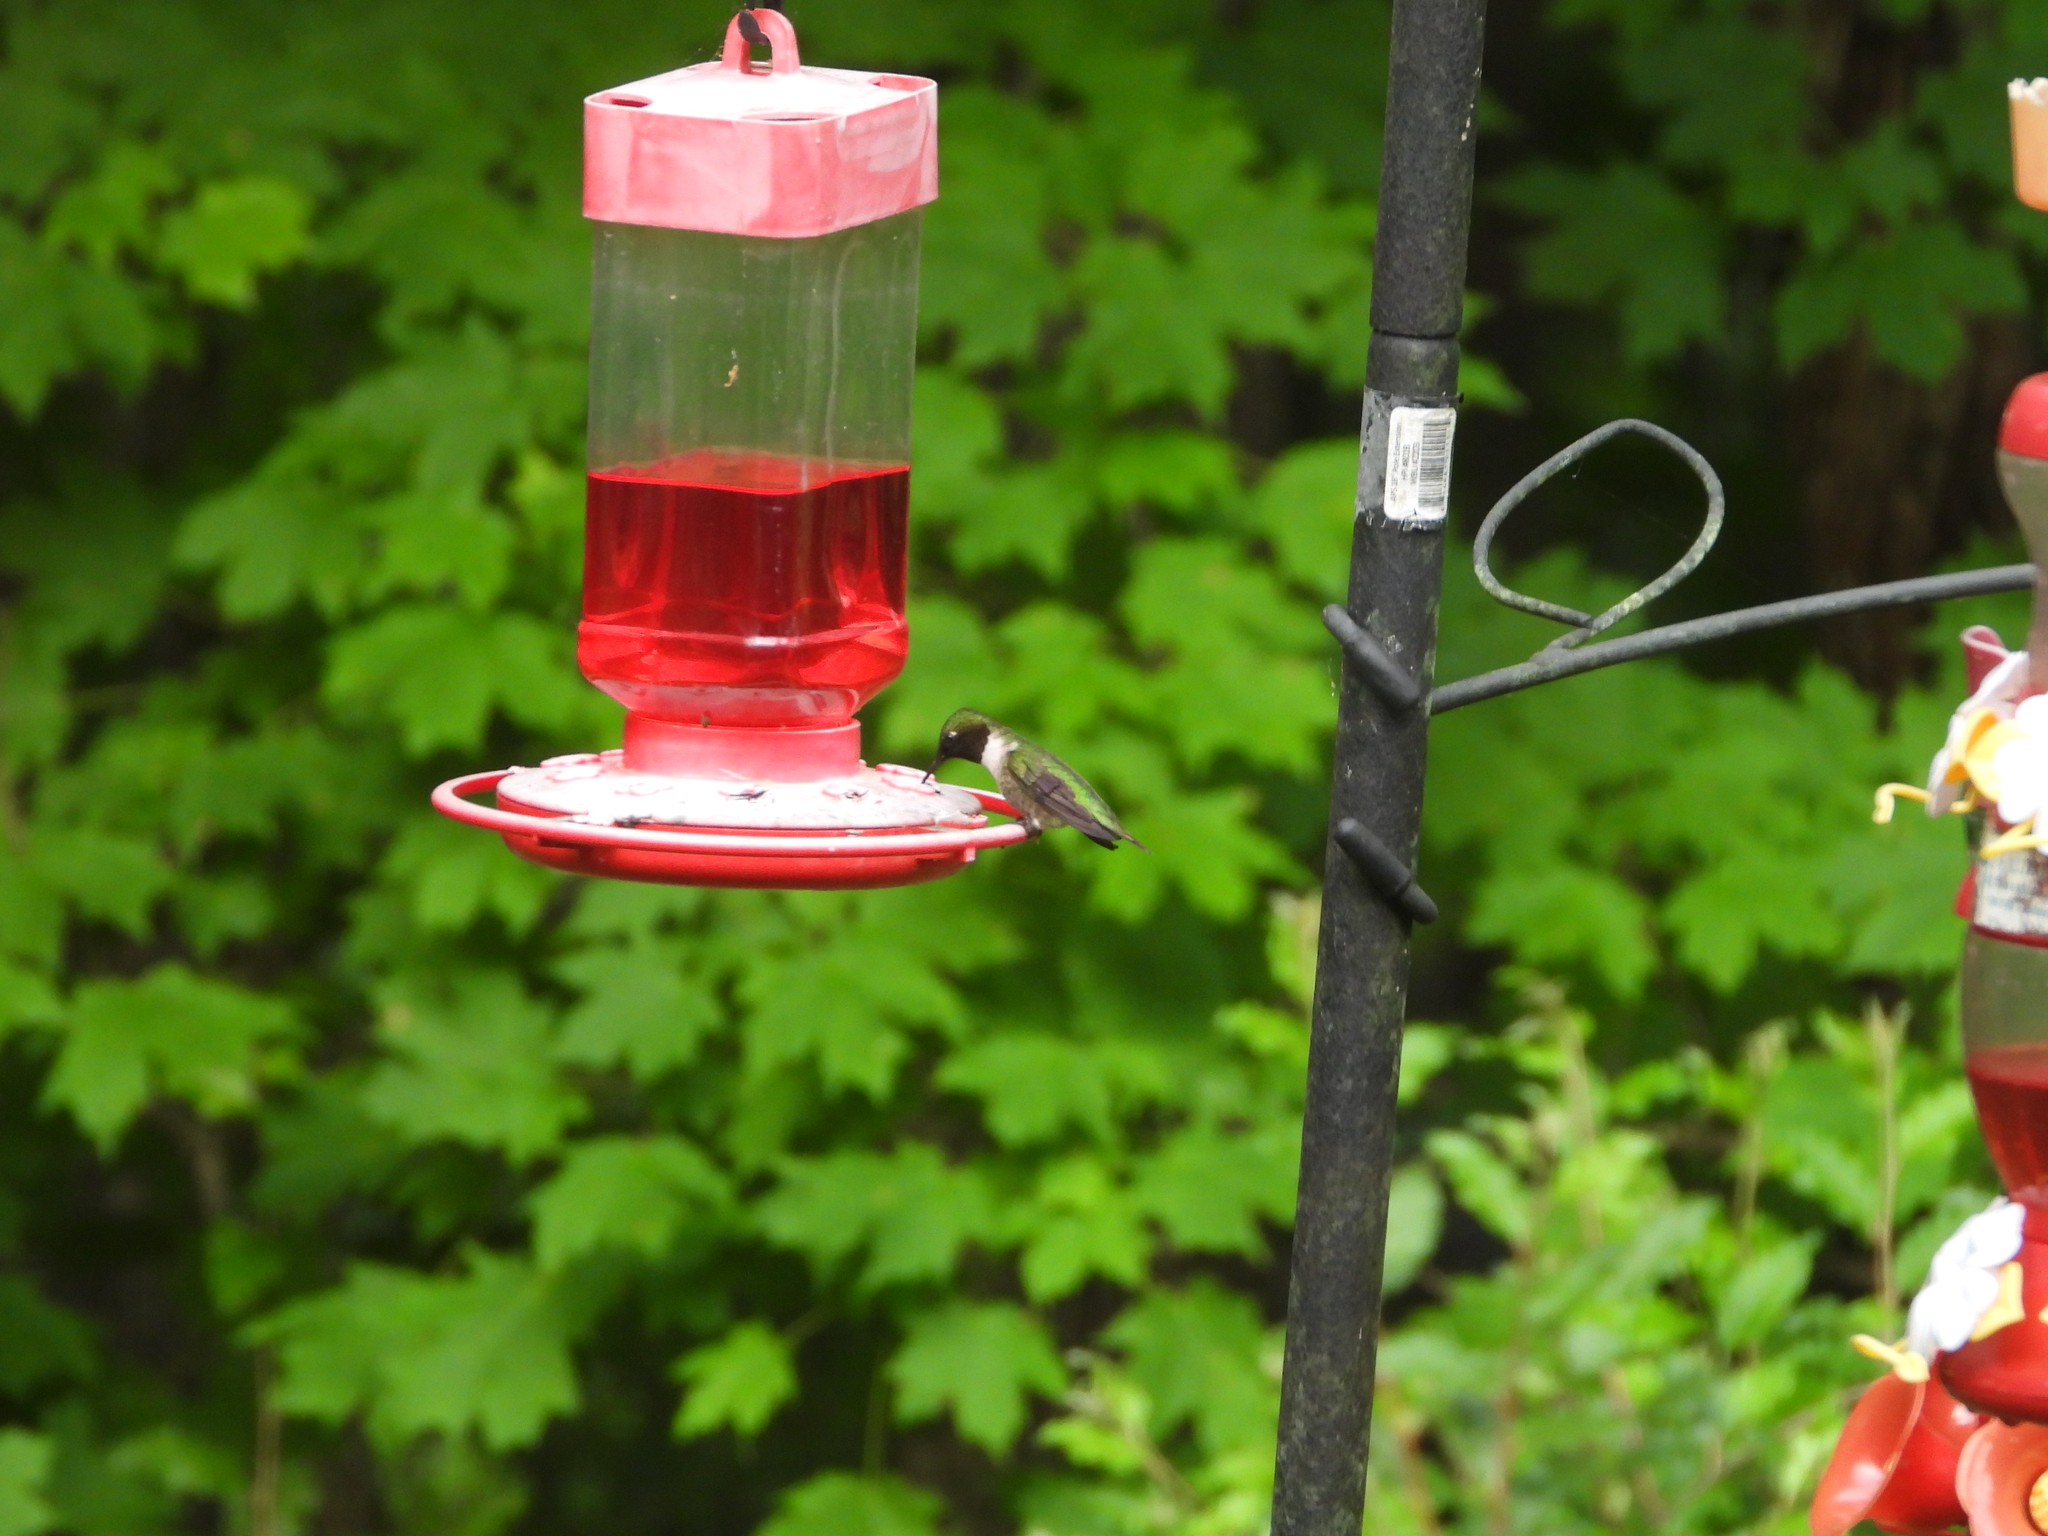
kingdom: Animalia
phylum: Chordata
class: Aves
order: Apodiformes
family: Trochilidae
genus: Archilochus
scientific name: Archilochus colubris
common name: Ruby-throated hummingbird
